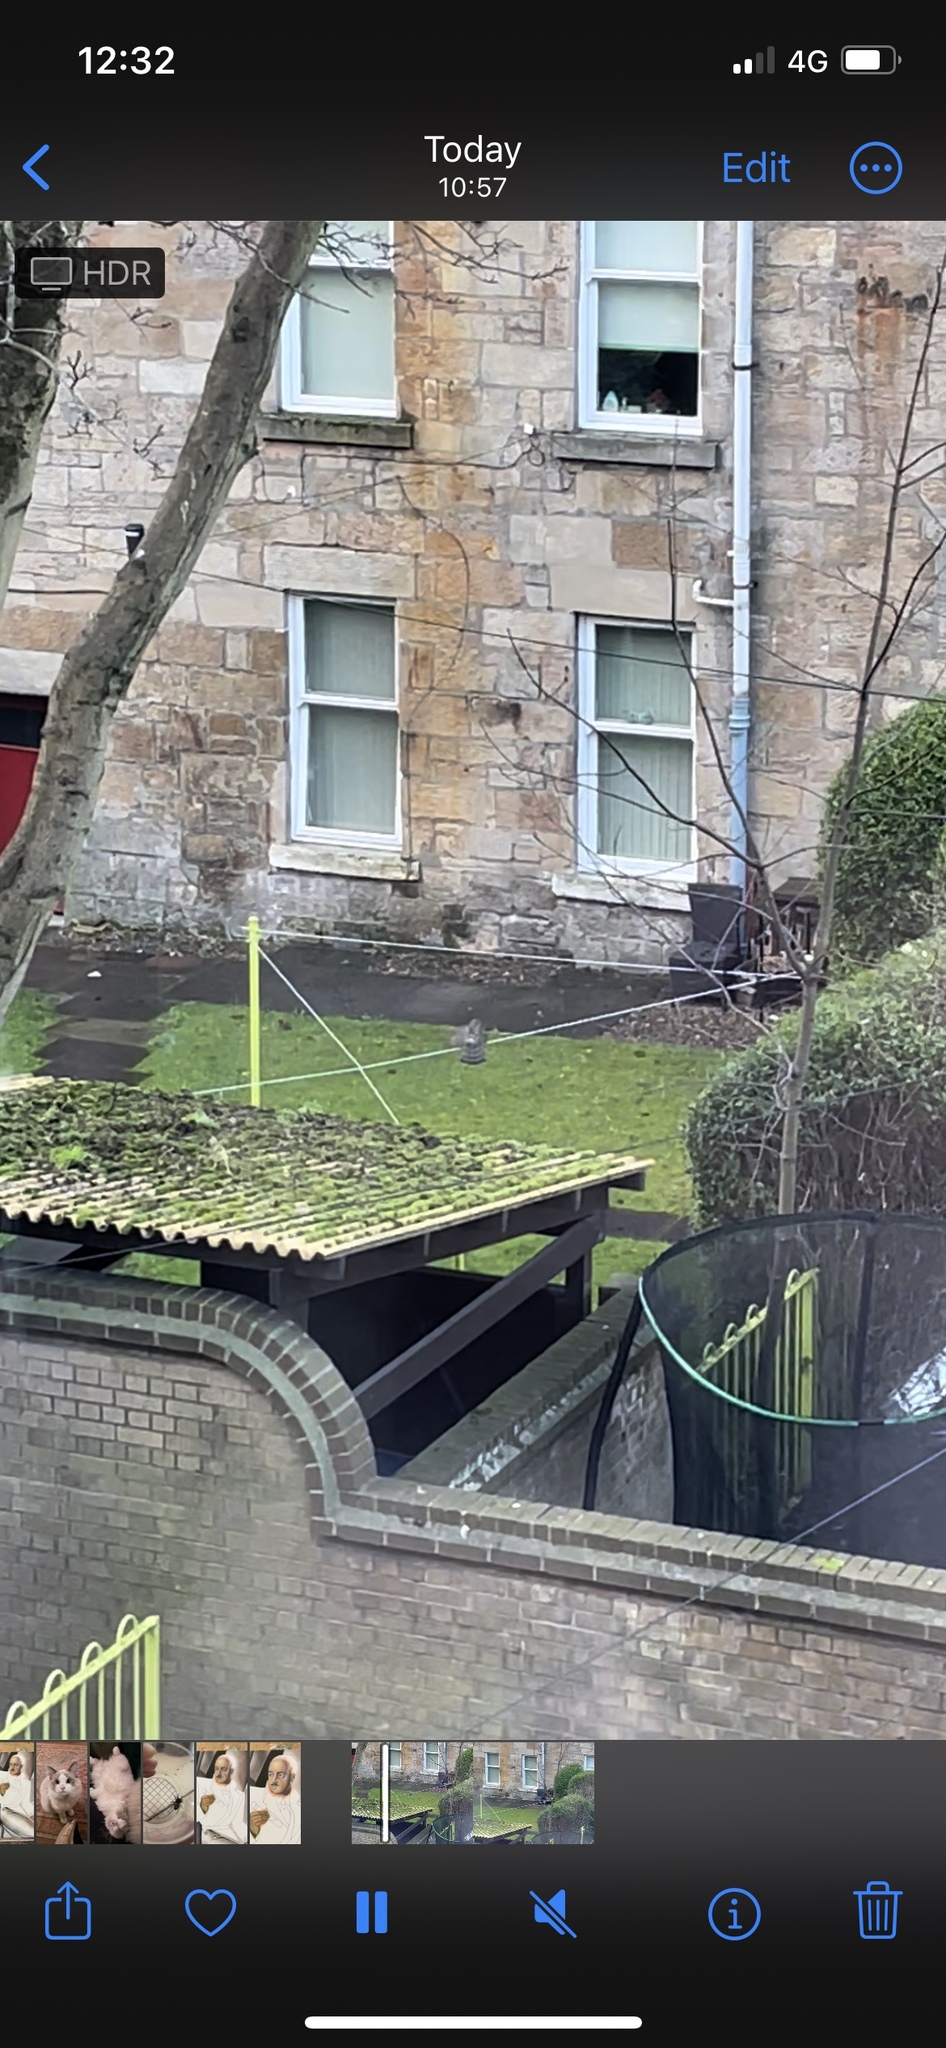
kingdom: Animalia
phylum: Chordata
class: Aves
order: Accipitriformes
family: Accipitridae
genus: Accipiter
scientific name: Accipiter nisus
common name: Eurasian sparrowhawk
